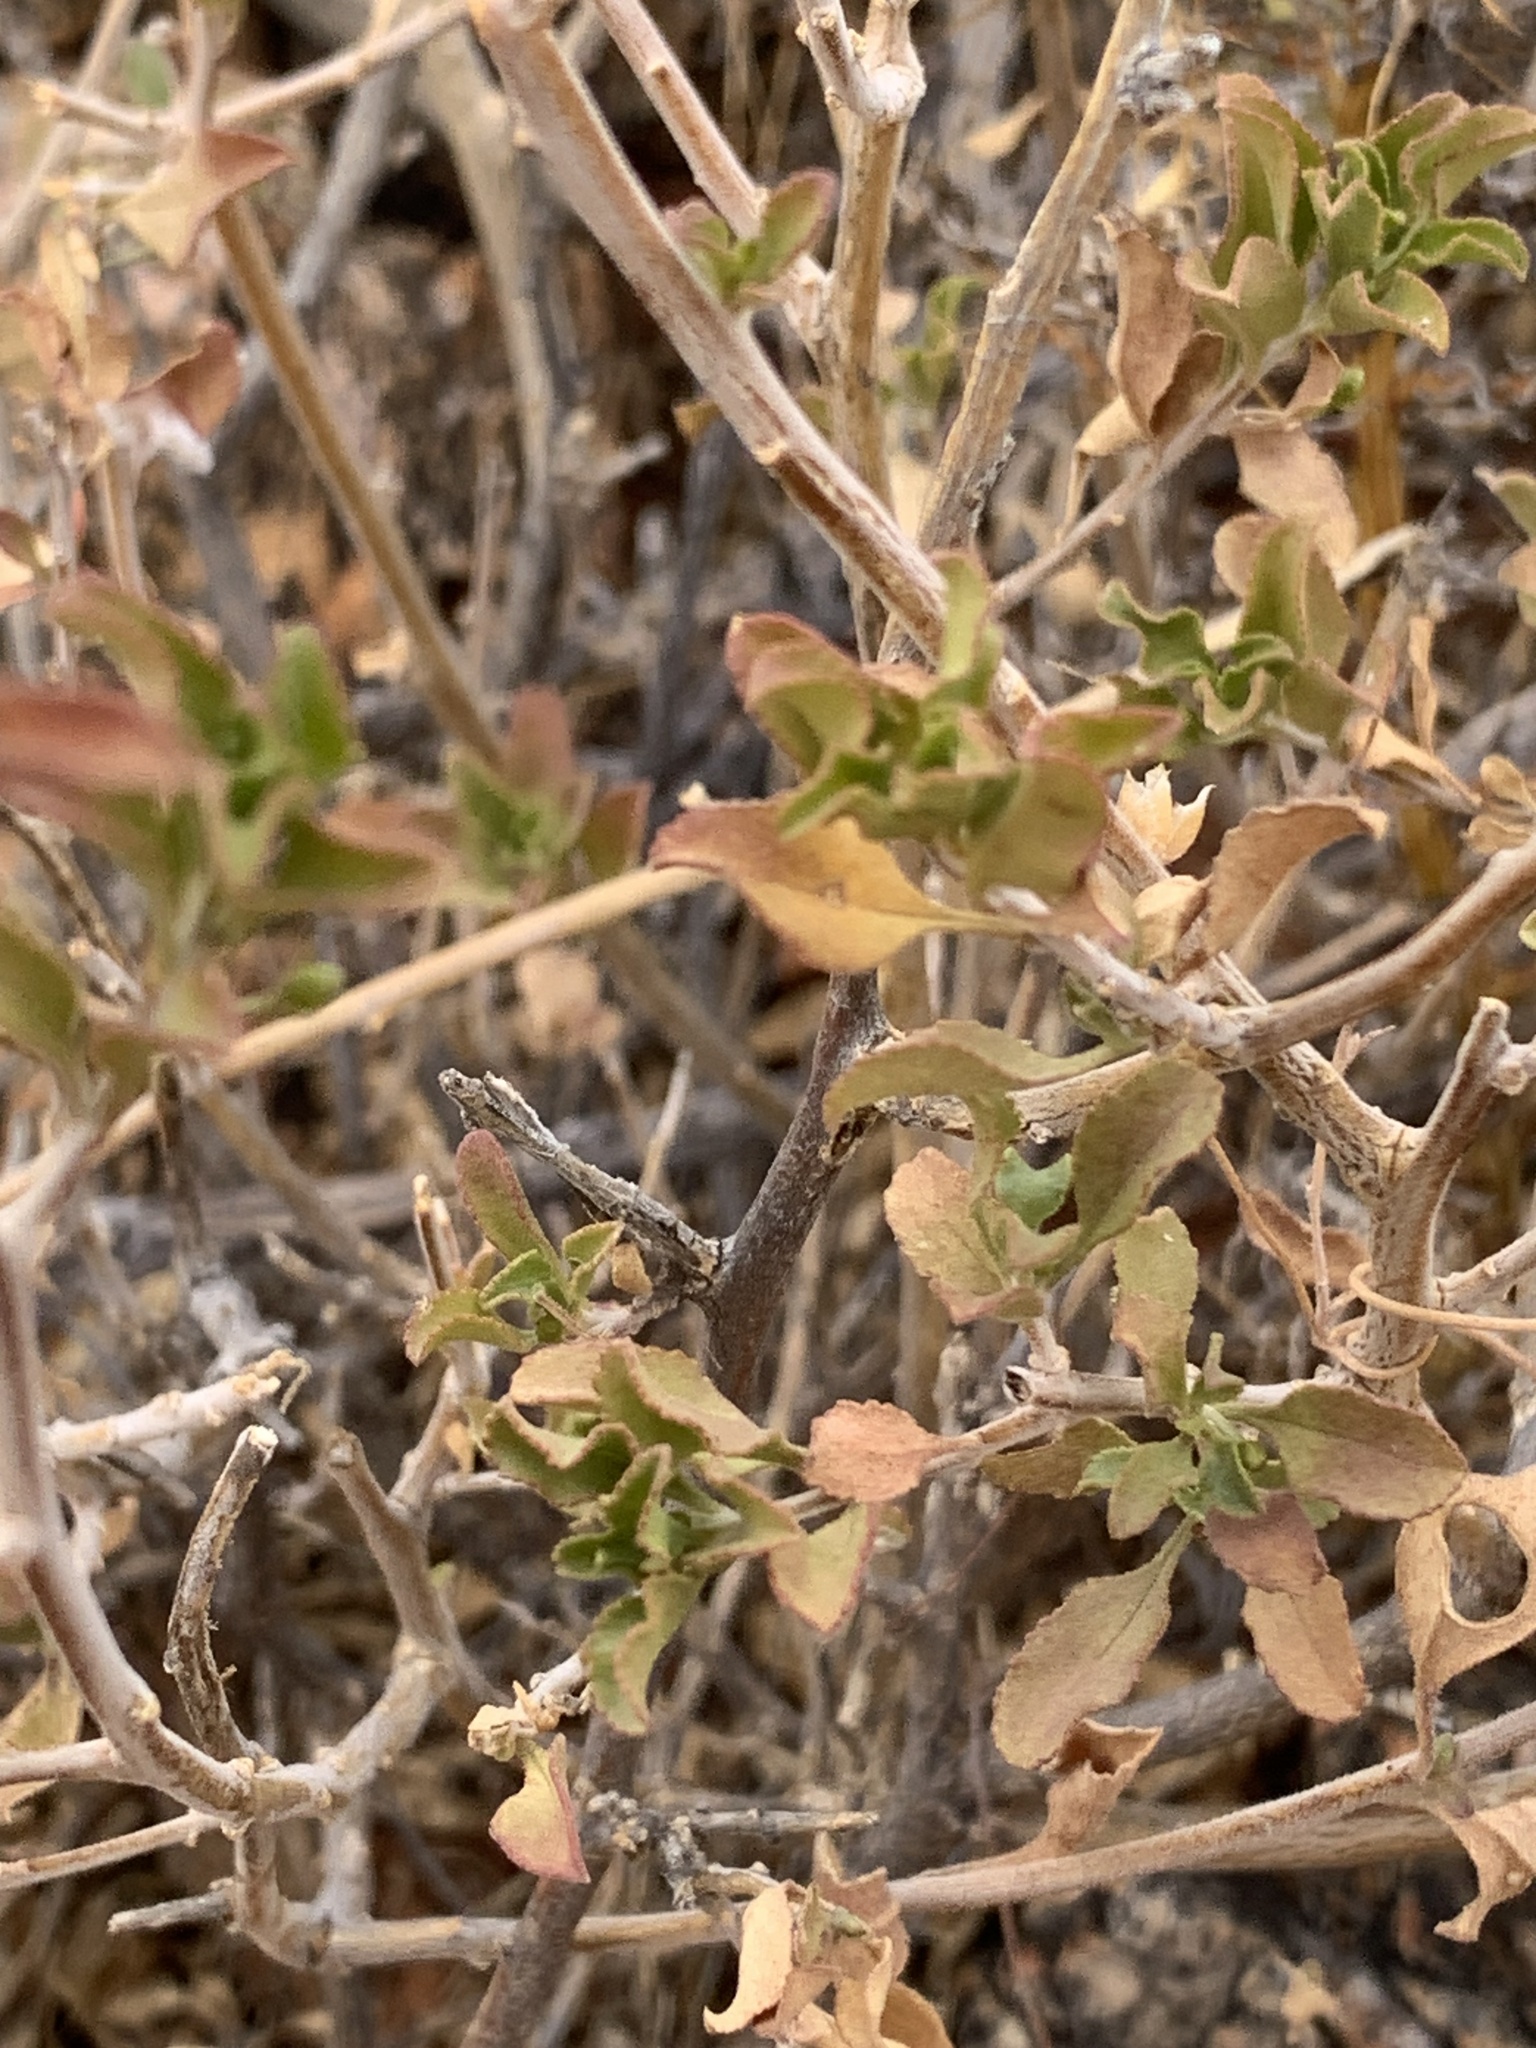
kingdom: Plantae
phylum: Tracheophyta
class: Magnoliopsida
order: Lamiales
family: Scrophulariaceae
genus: Eremophila
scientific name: Eremophila serrulata
